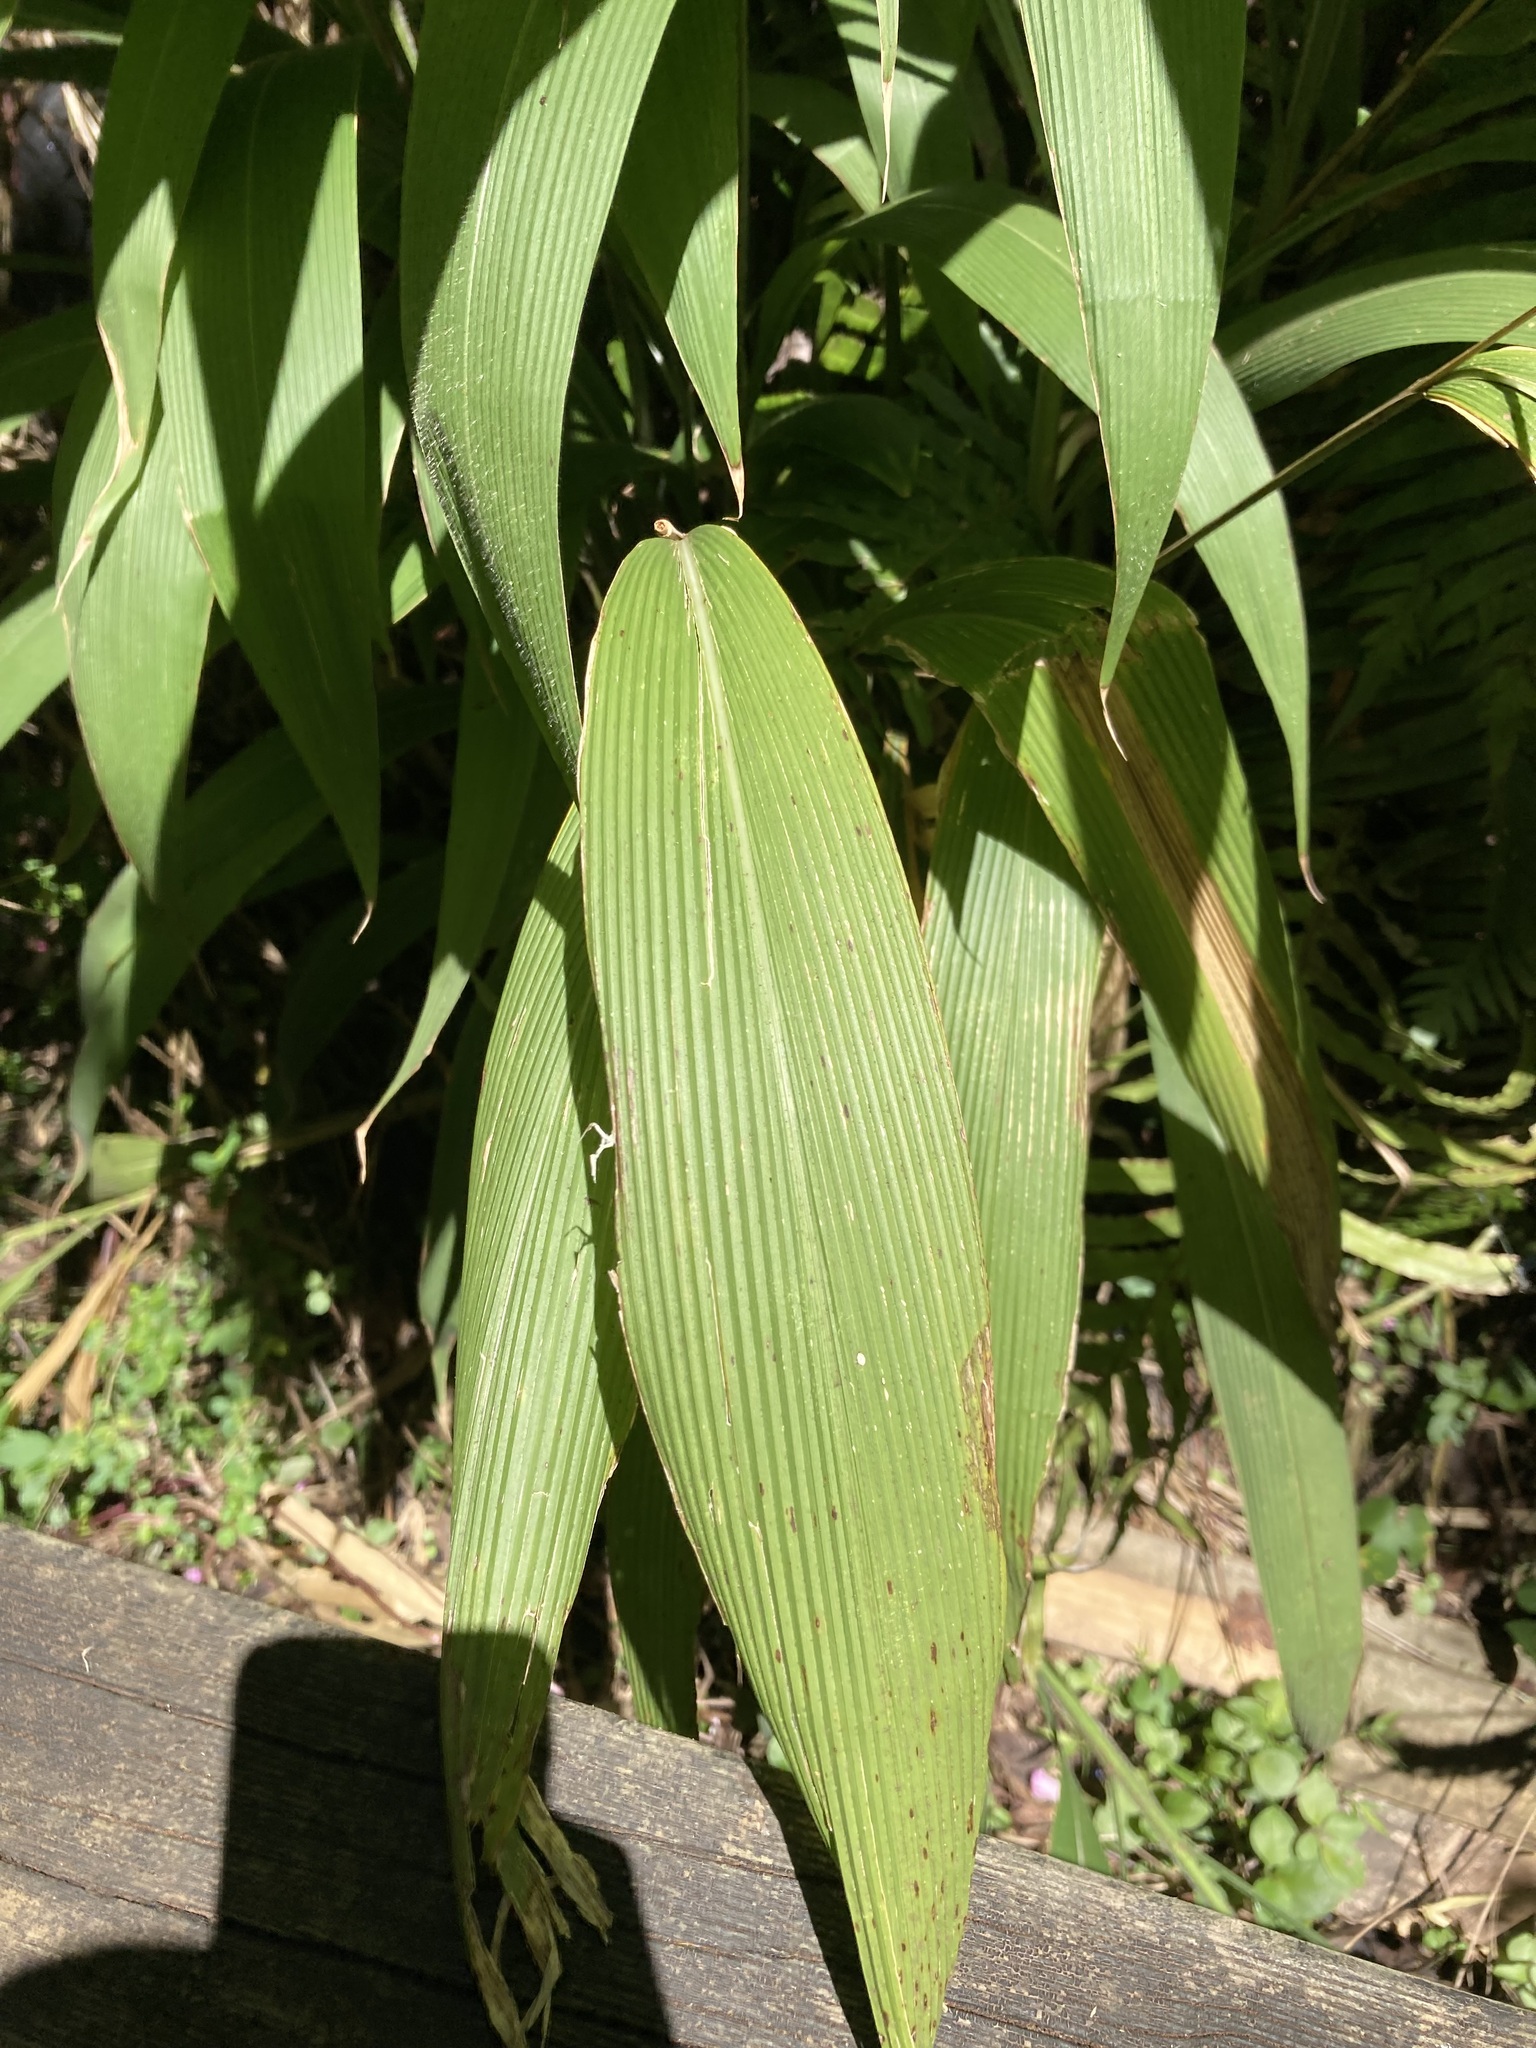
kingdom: Plantae
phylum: Tracheophyta
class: Liliopsida
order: Poales
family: Poaceae
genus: Setaria
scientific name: Setaria palmifolia
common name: Broadleaved bristlegrass
